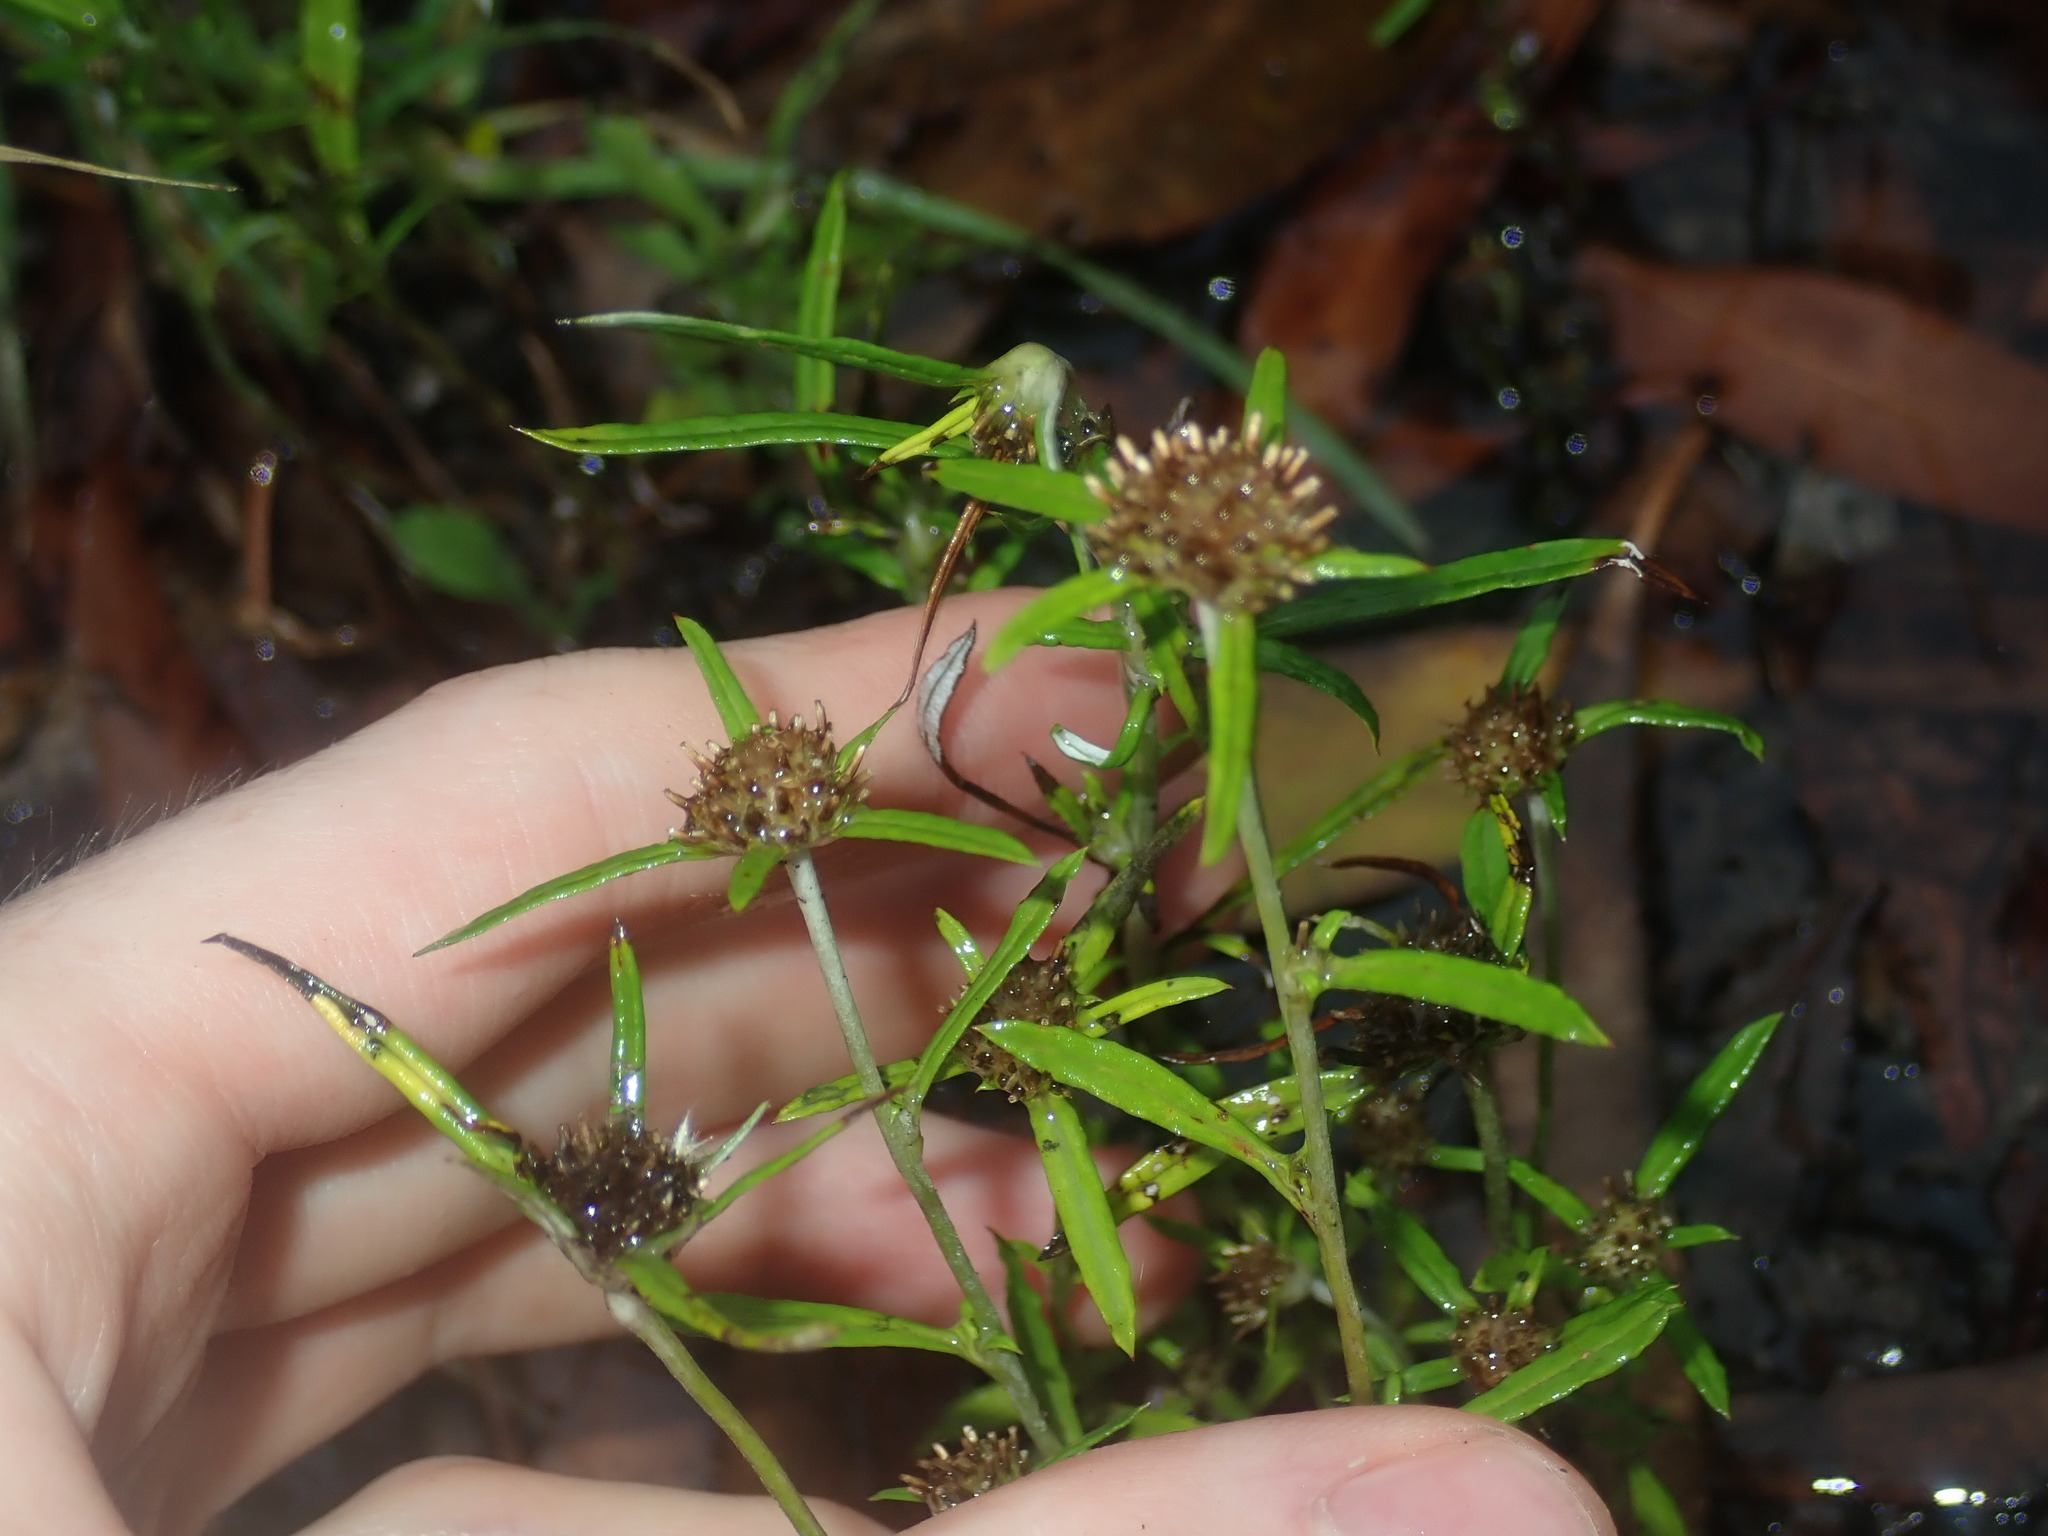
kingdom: Plantae
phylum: Tracheophyta
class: Magnoliopsida
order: Asterales
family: Asteraceae
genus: Euchiton
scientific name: Euchiton sphaericus
